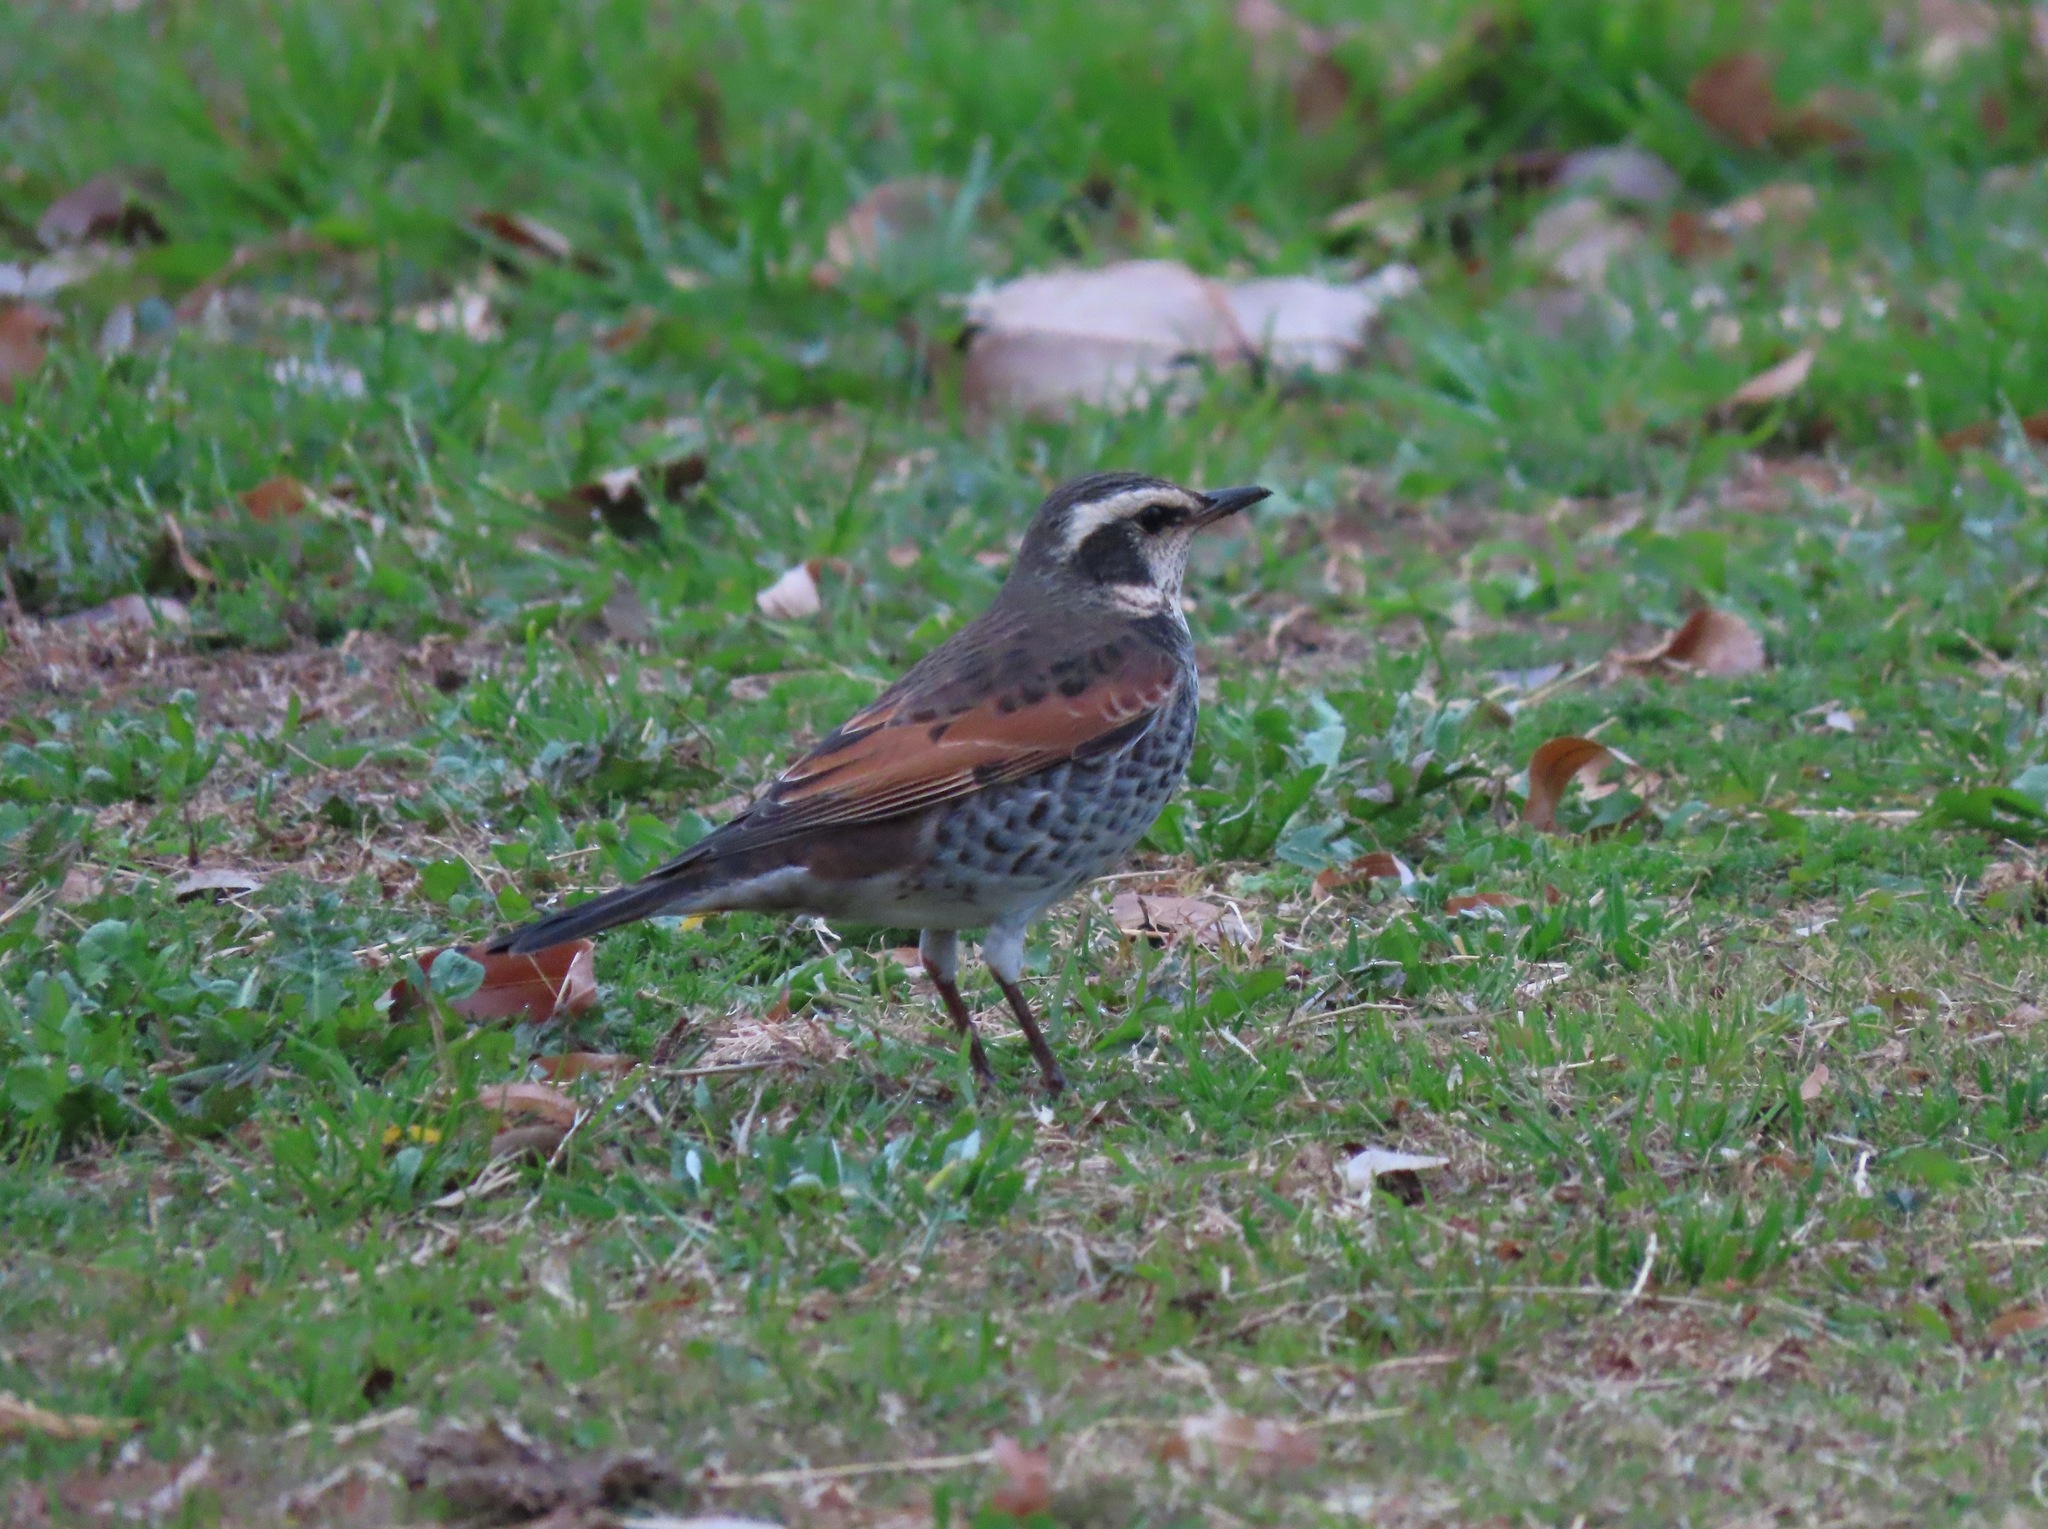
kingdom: Animalia
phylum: Chordata
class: Aves
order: Passeriformes
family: Turdidae
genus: Turdus
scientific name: Turdus eunomus
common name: Dusky thrush
